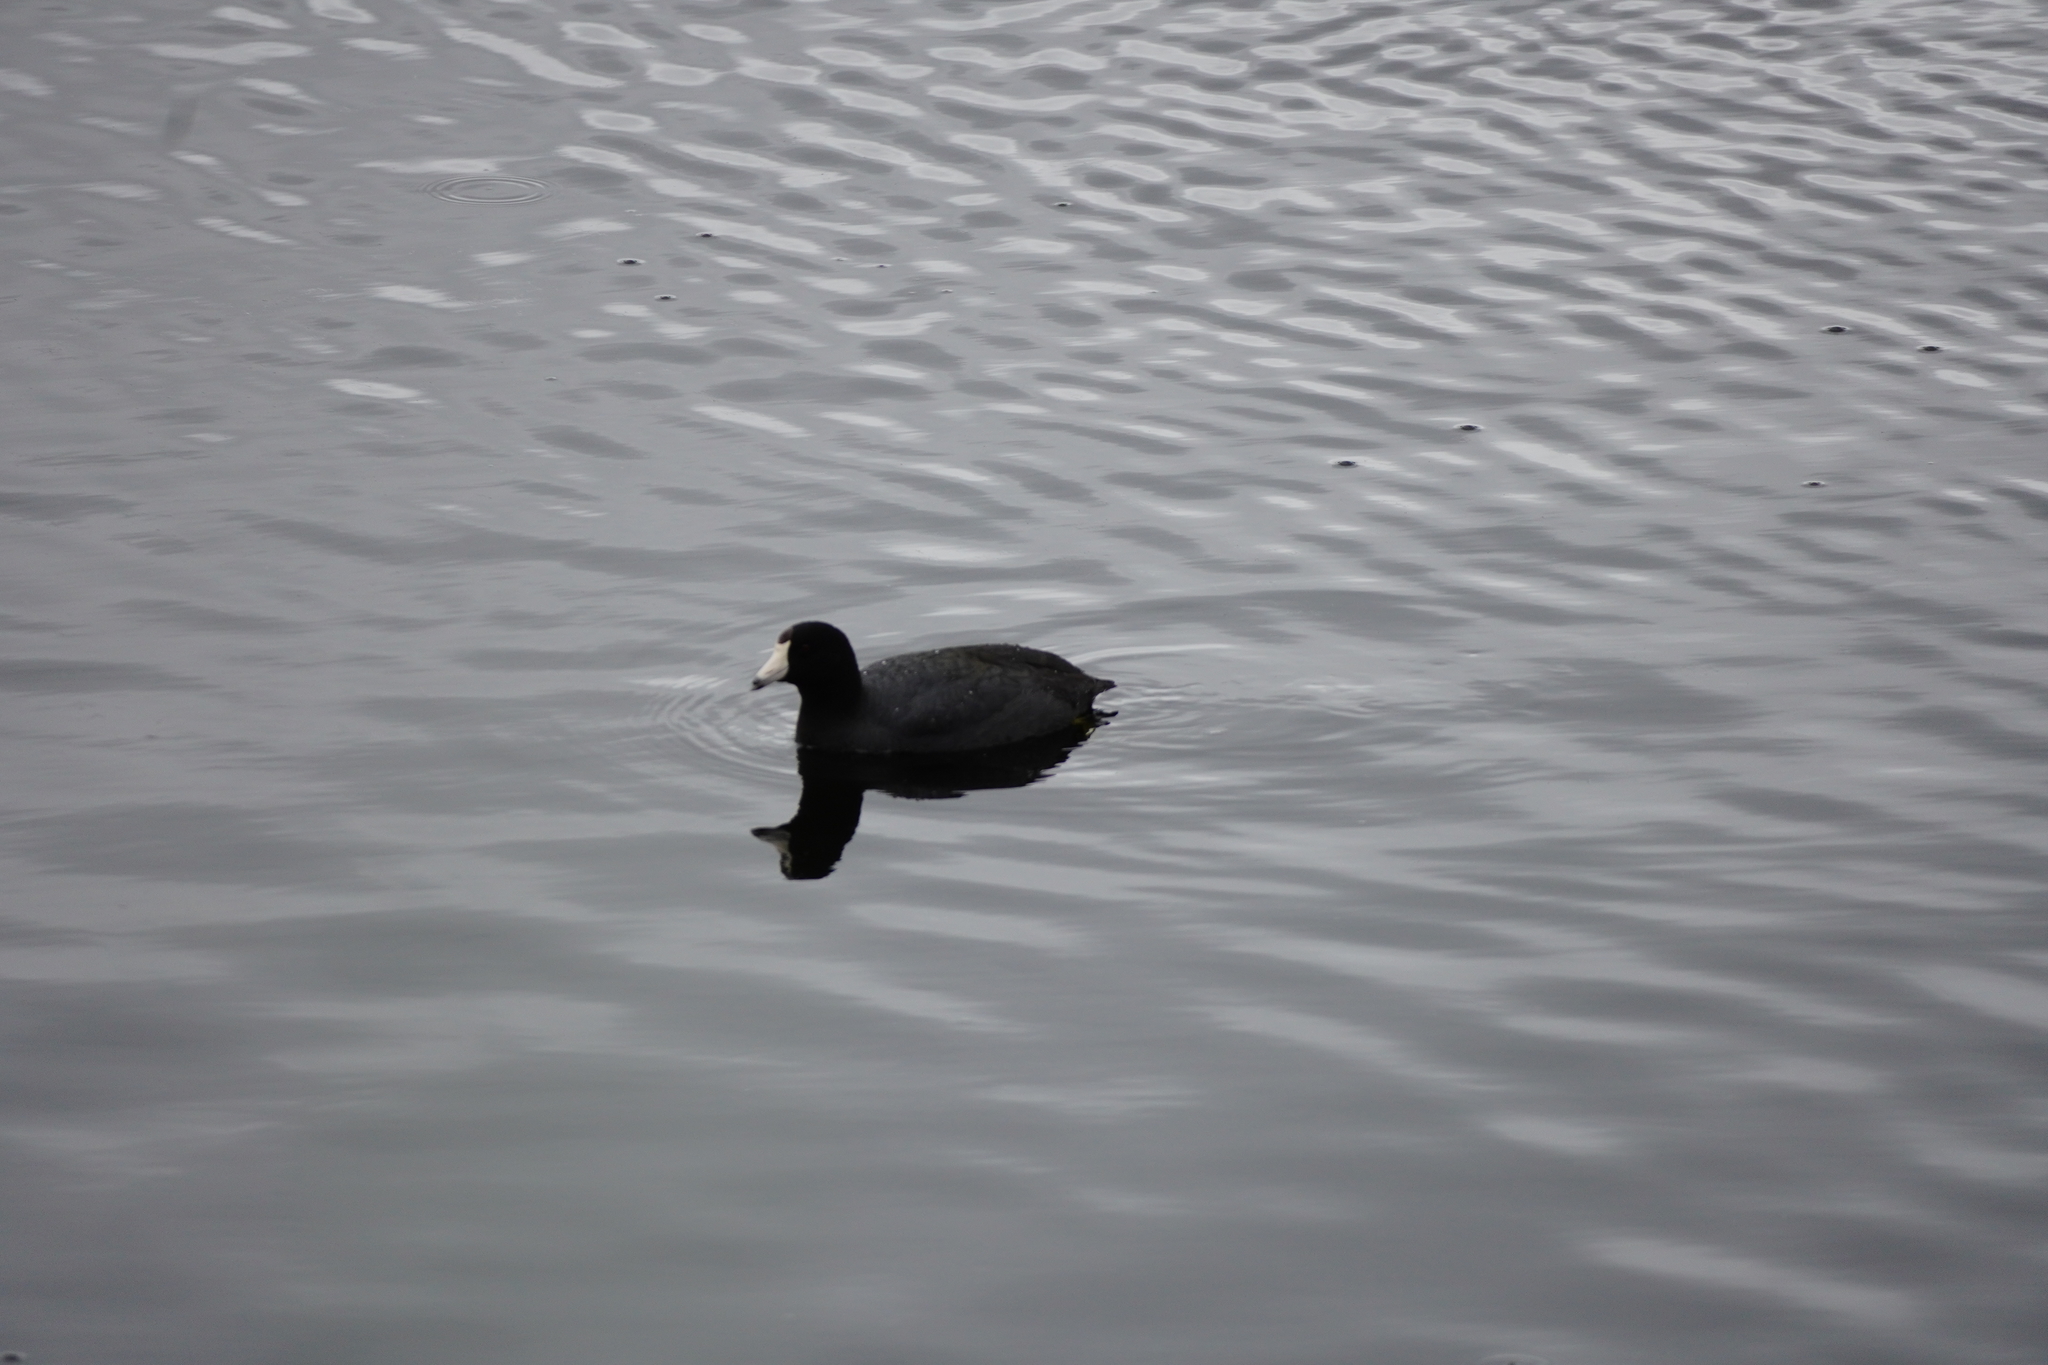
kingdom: Animalia
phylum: Chordata
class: Aves
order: Gruiformes
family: Rallidae
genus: Fulica
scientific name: Fulica americana
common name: American coot
